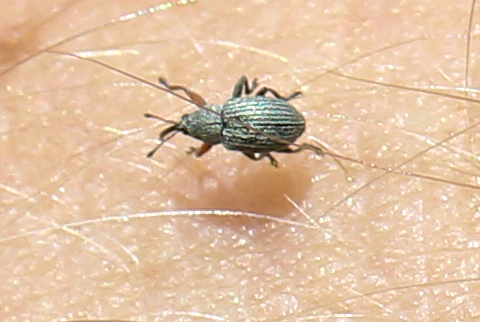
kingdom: Animalia
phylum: Arthropoda
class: Insecta
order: Coleoptera
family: Brentidae
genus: Exapion
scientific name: Exapion ulicis
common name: Gorse seed weevil
